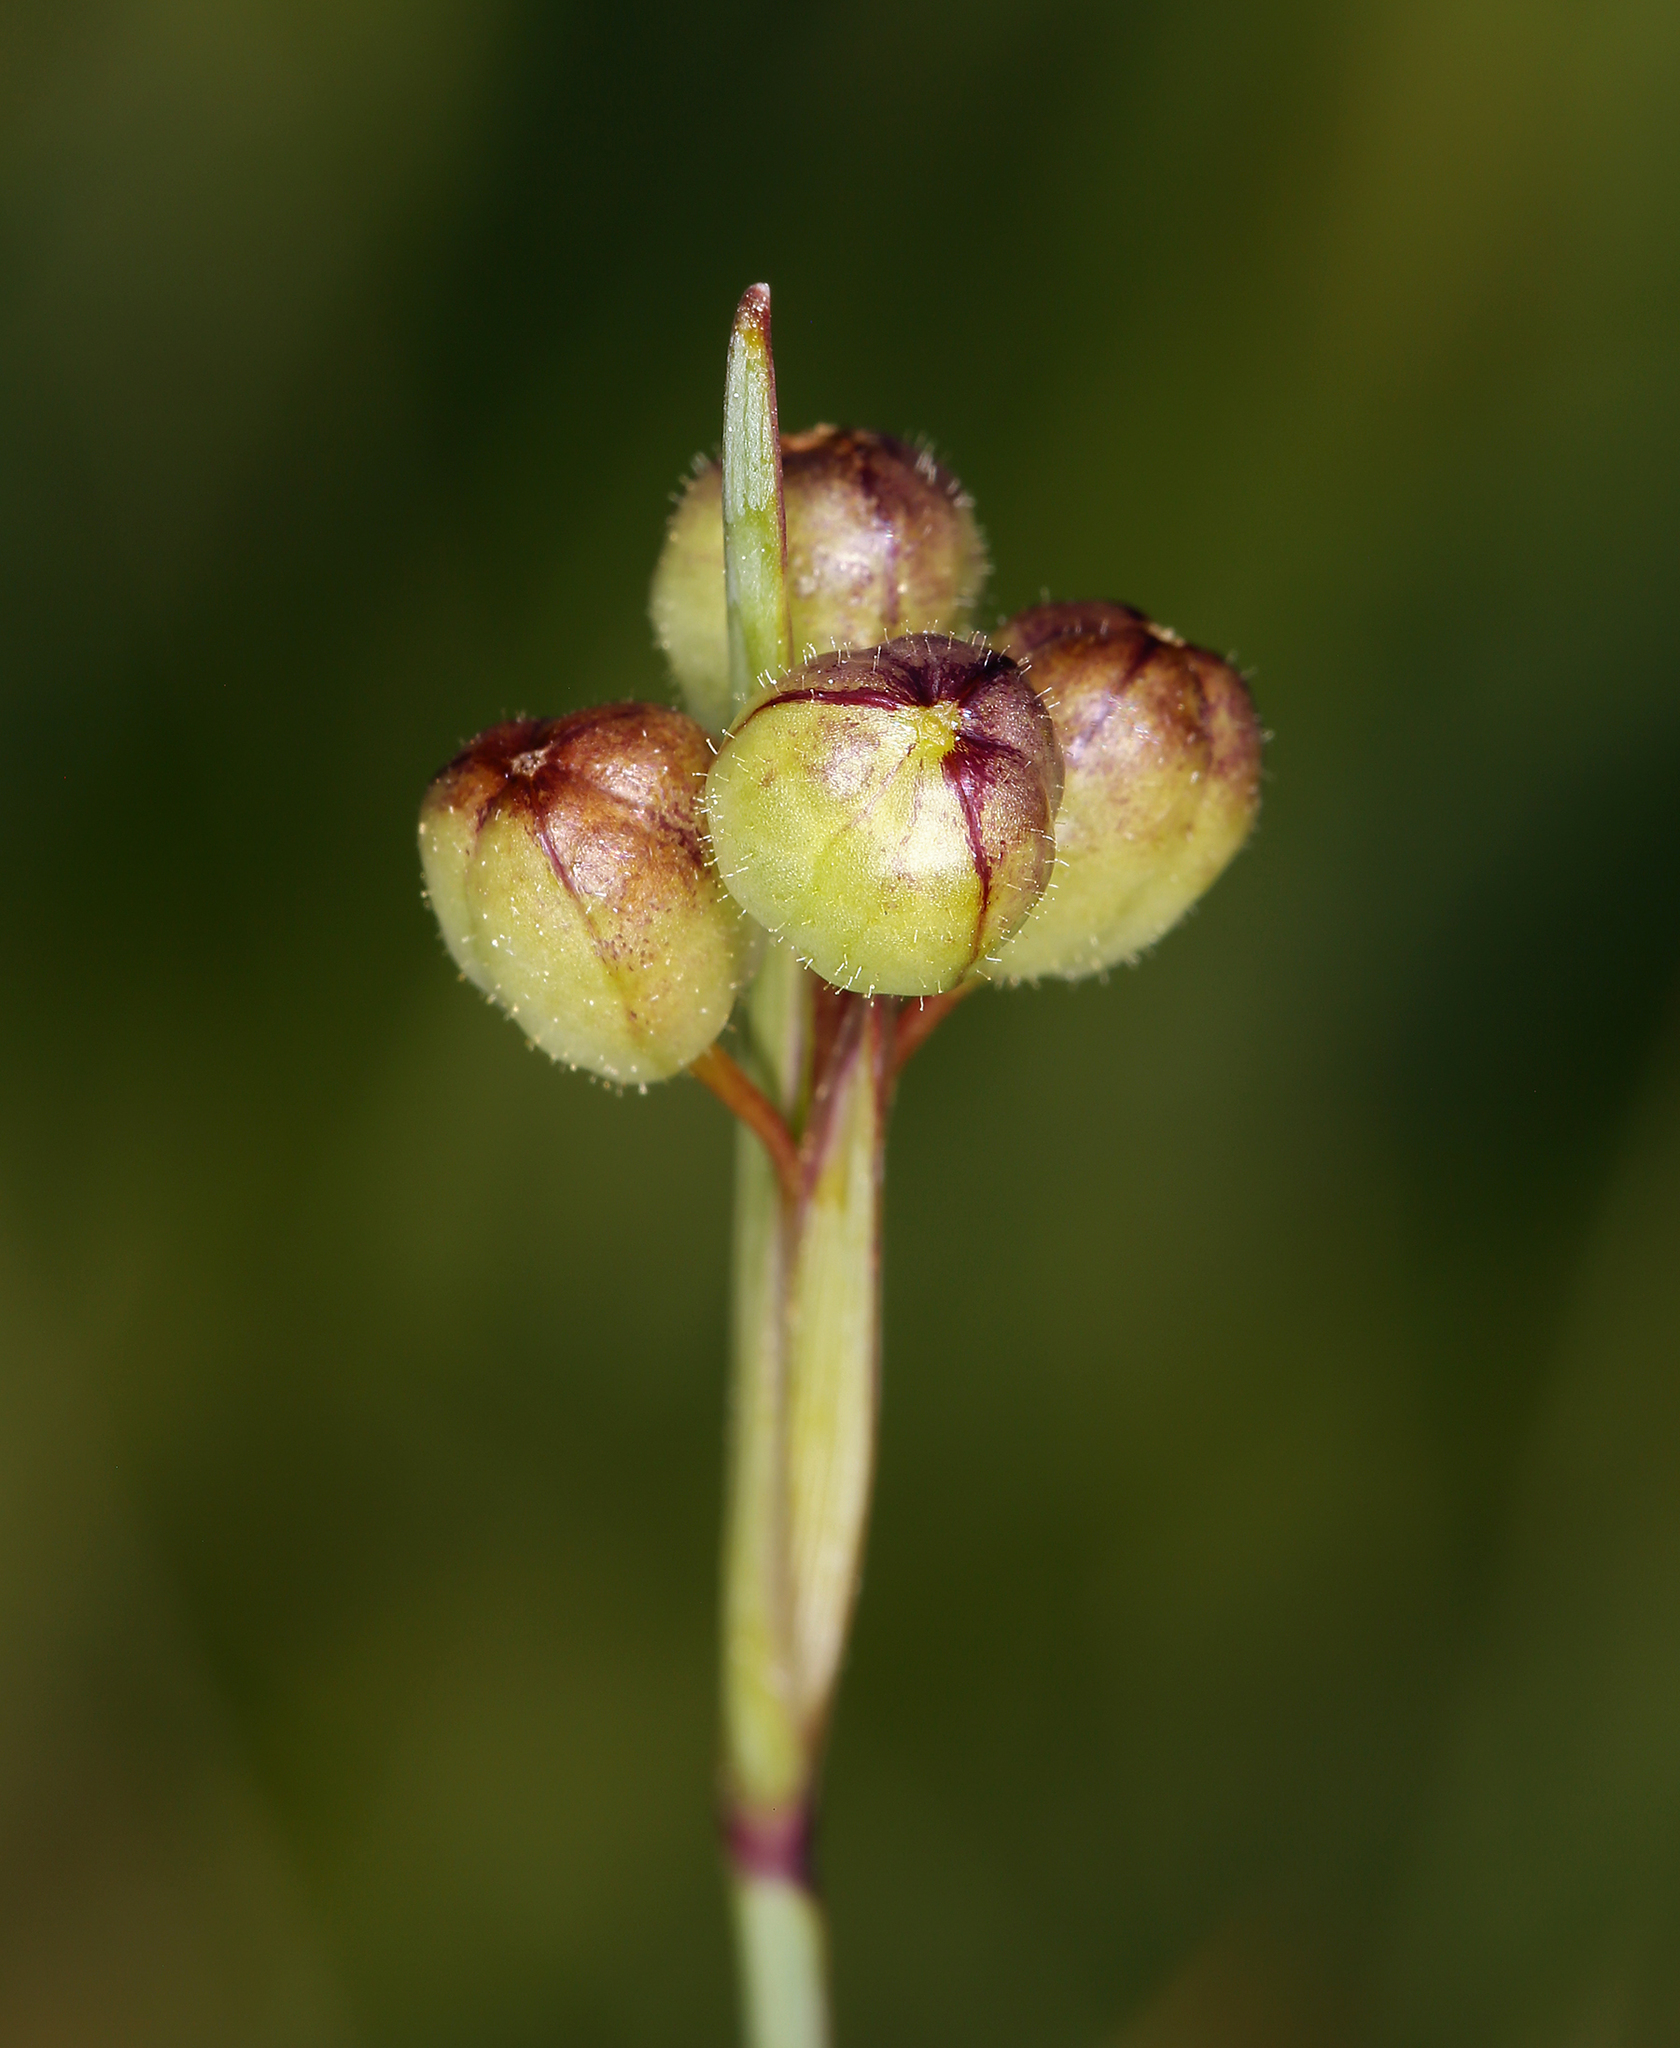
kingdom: Plantae
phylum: Tracheophyta
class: Liliopsida
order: Asparagales
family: Iridaceae
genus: Sisyrinchium
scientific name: Sisyrinchium idahoense
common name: Idaho blue-eyed-grass
